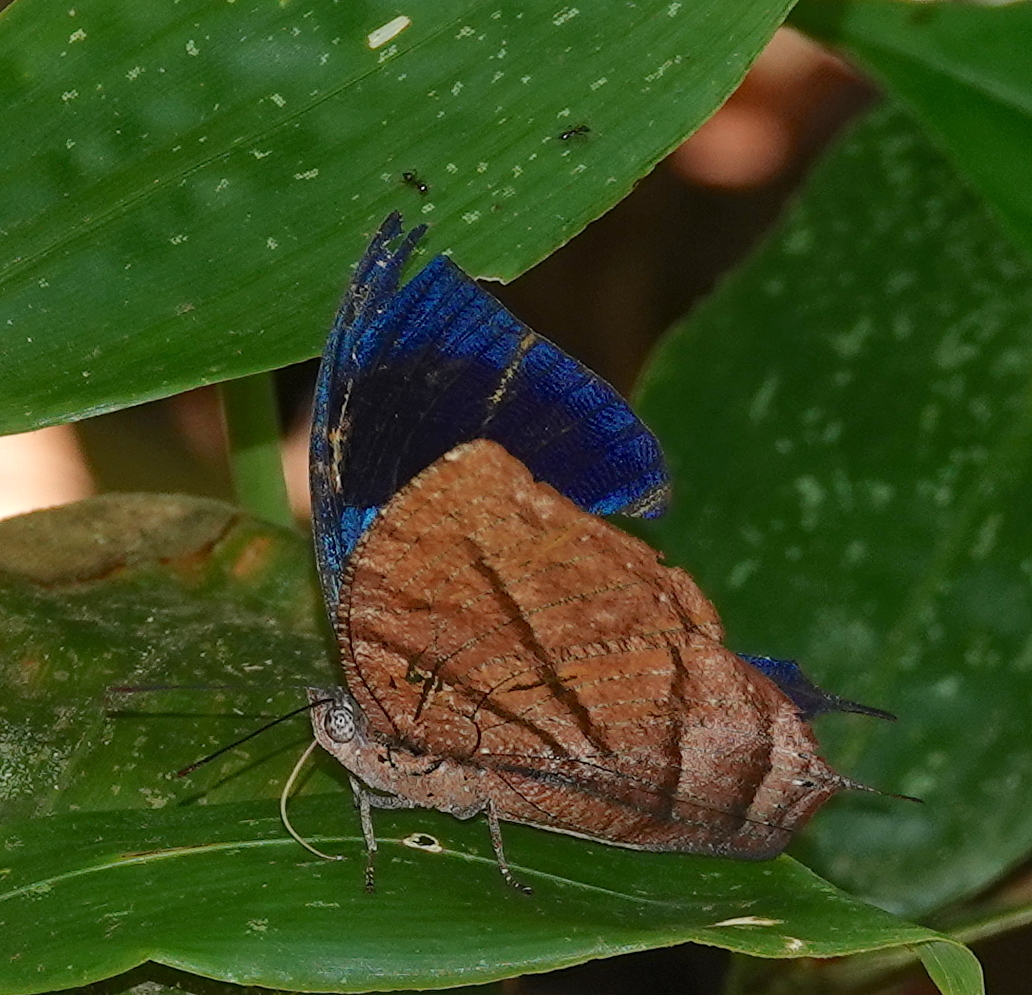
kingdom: Animalia
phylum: Arthropoda
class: Insecta
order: Lepidoptera
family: Nymphalidae
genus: Anaea
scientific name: Anaea philumena
